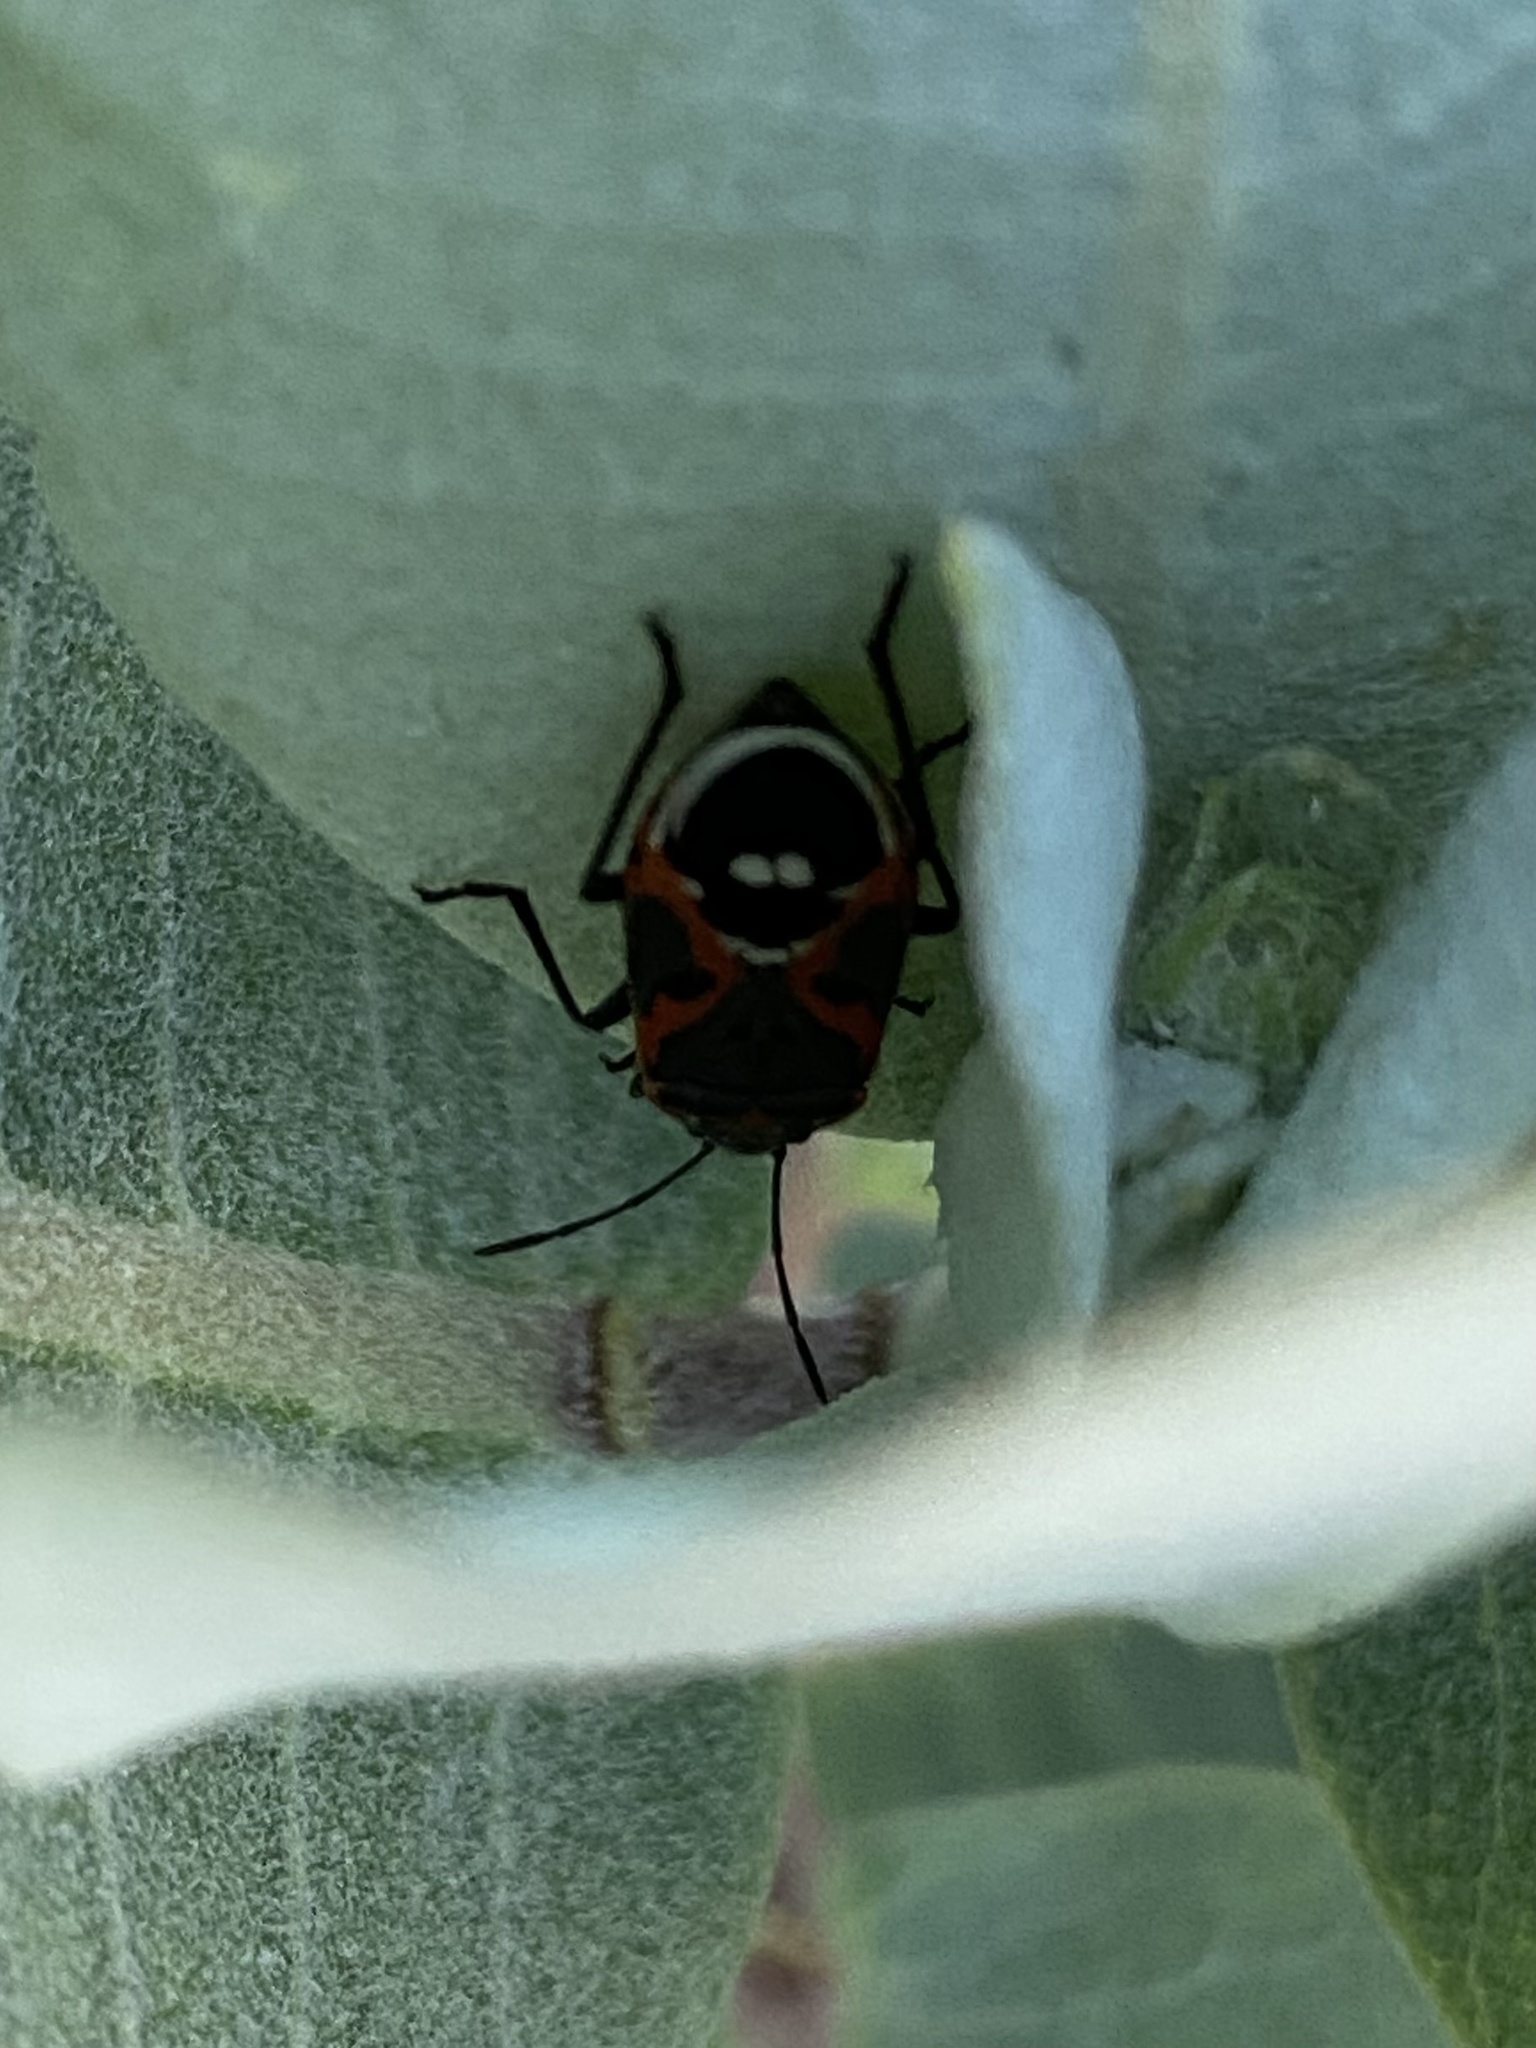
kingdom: Animalia
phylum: Arthropoda
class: Insecta
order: Hemiptera
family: Lygaeidae
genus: Lygaeus
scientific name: Lygaeus kalmii
